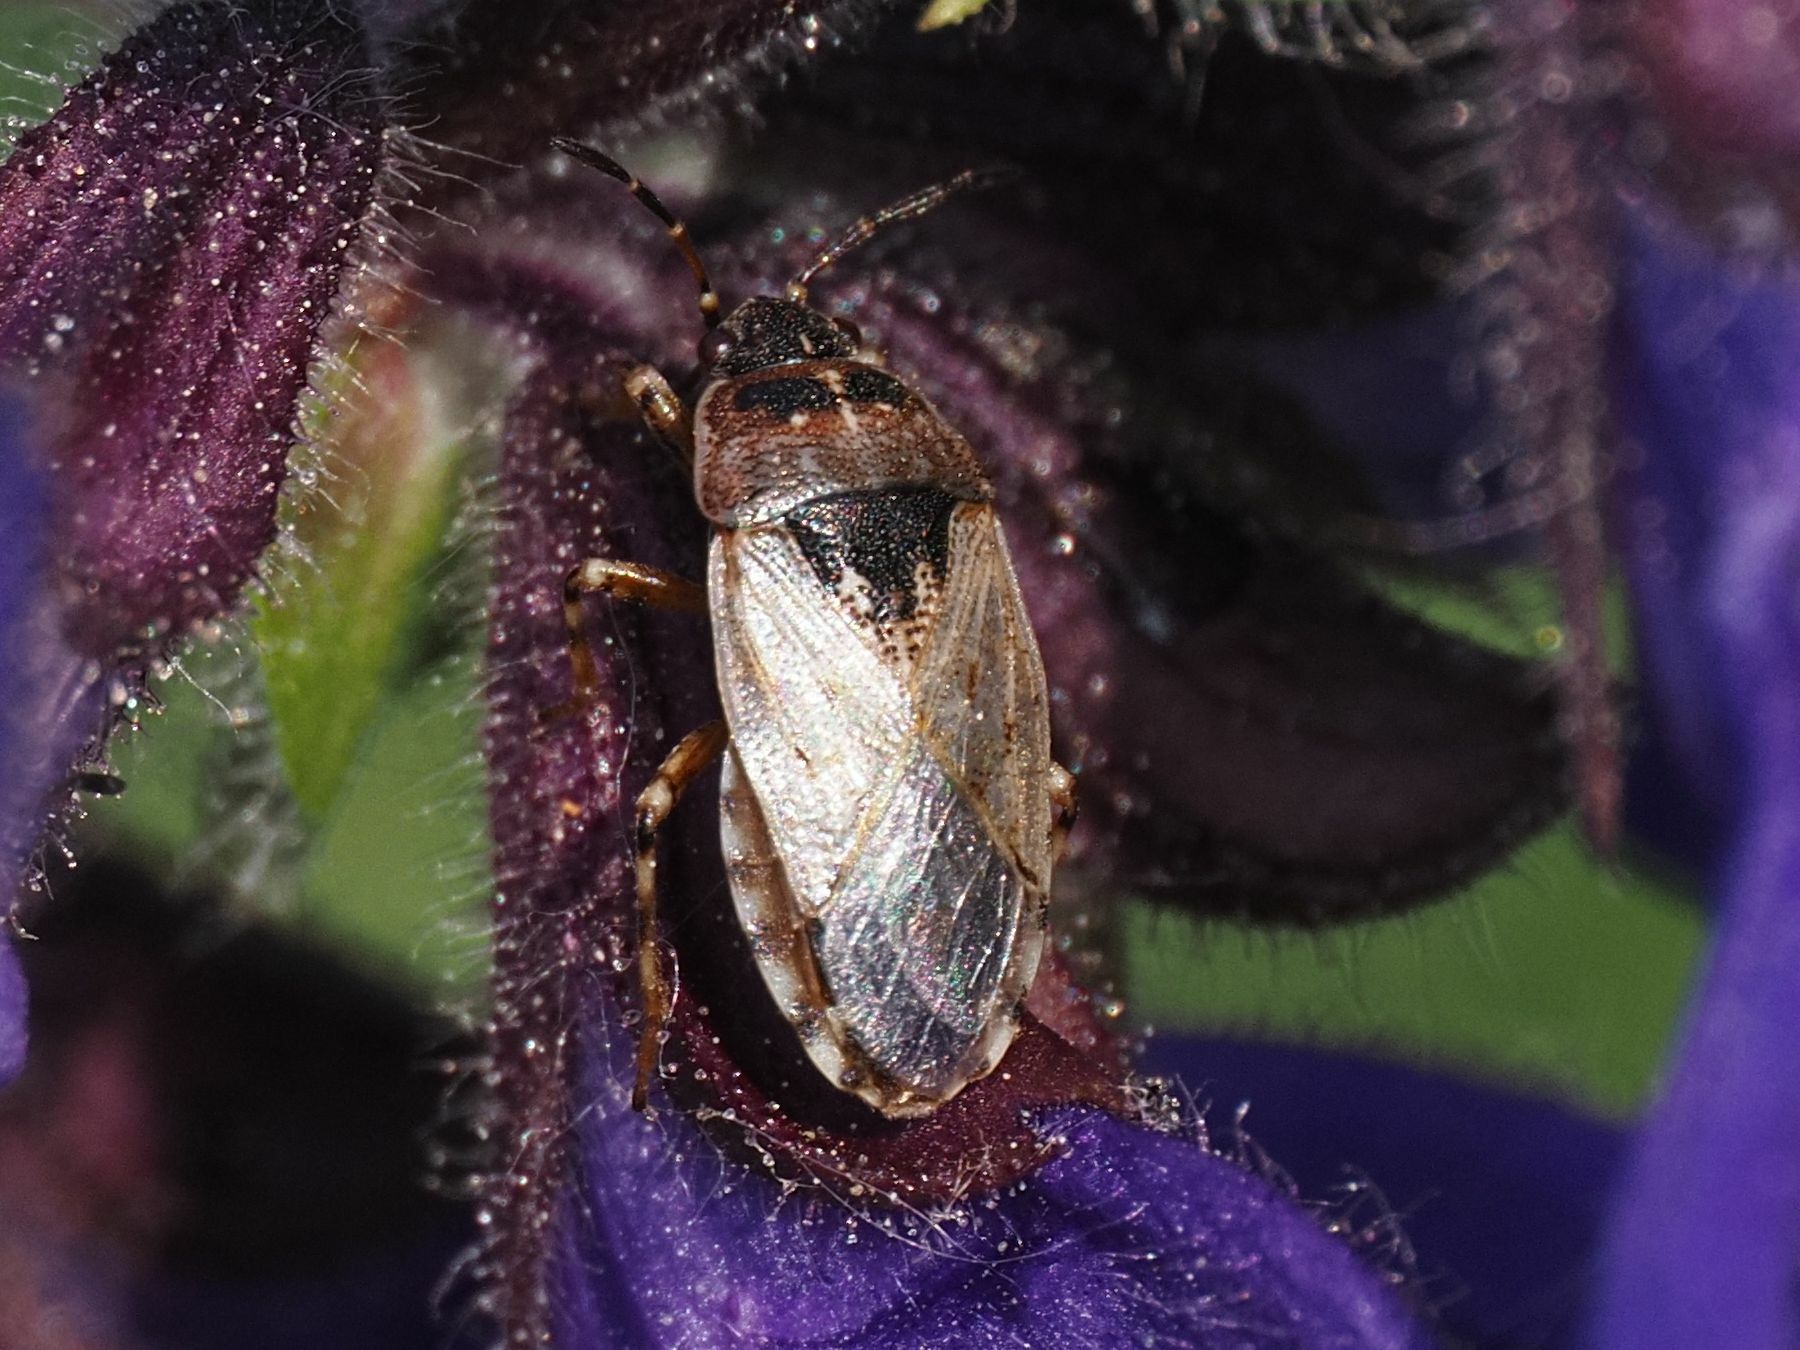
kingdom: Animalia
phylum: Arthropoda
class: Insecta
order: Hemiptera
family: Heterogastridae
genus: Platyplax
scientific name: Platyplax salviae
